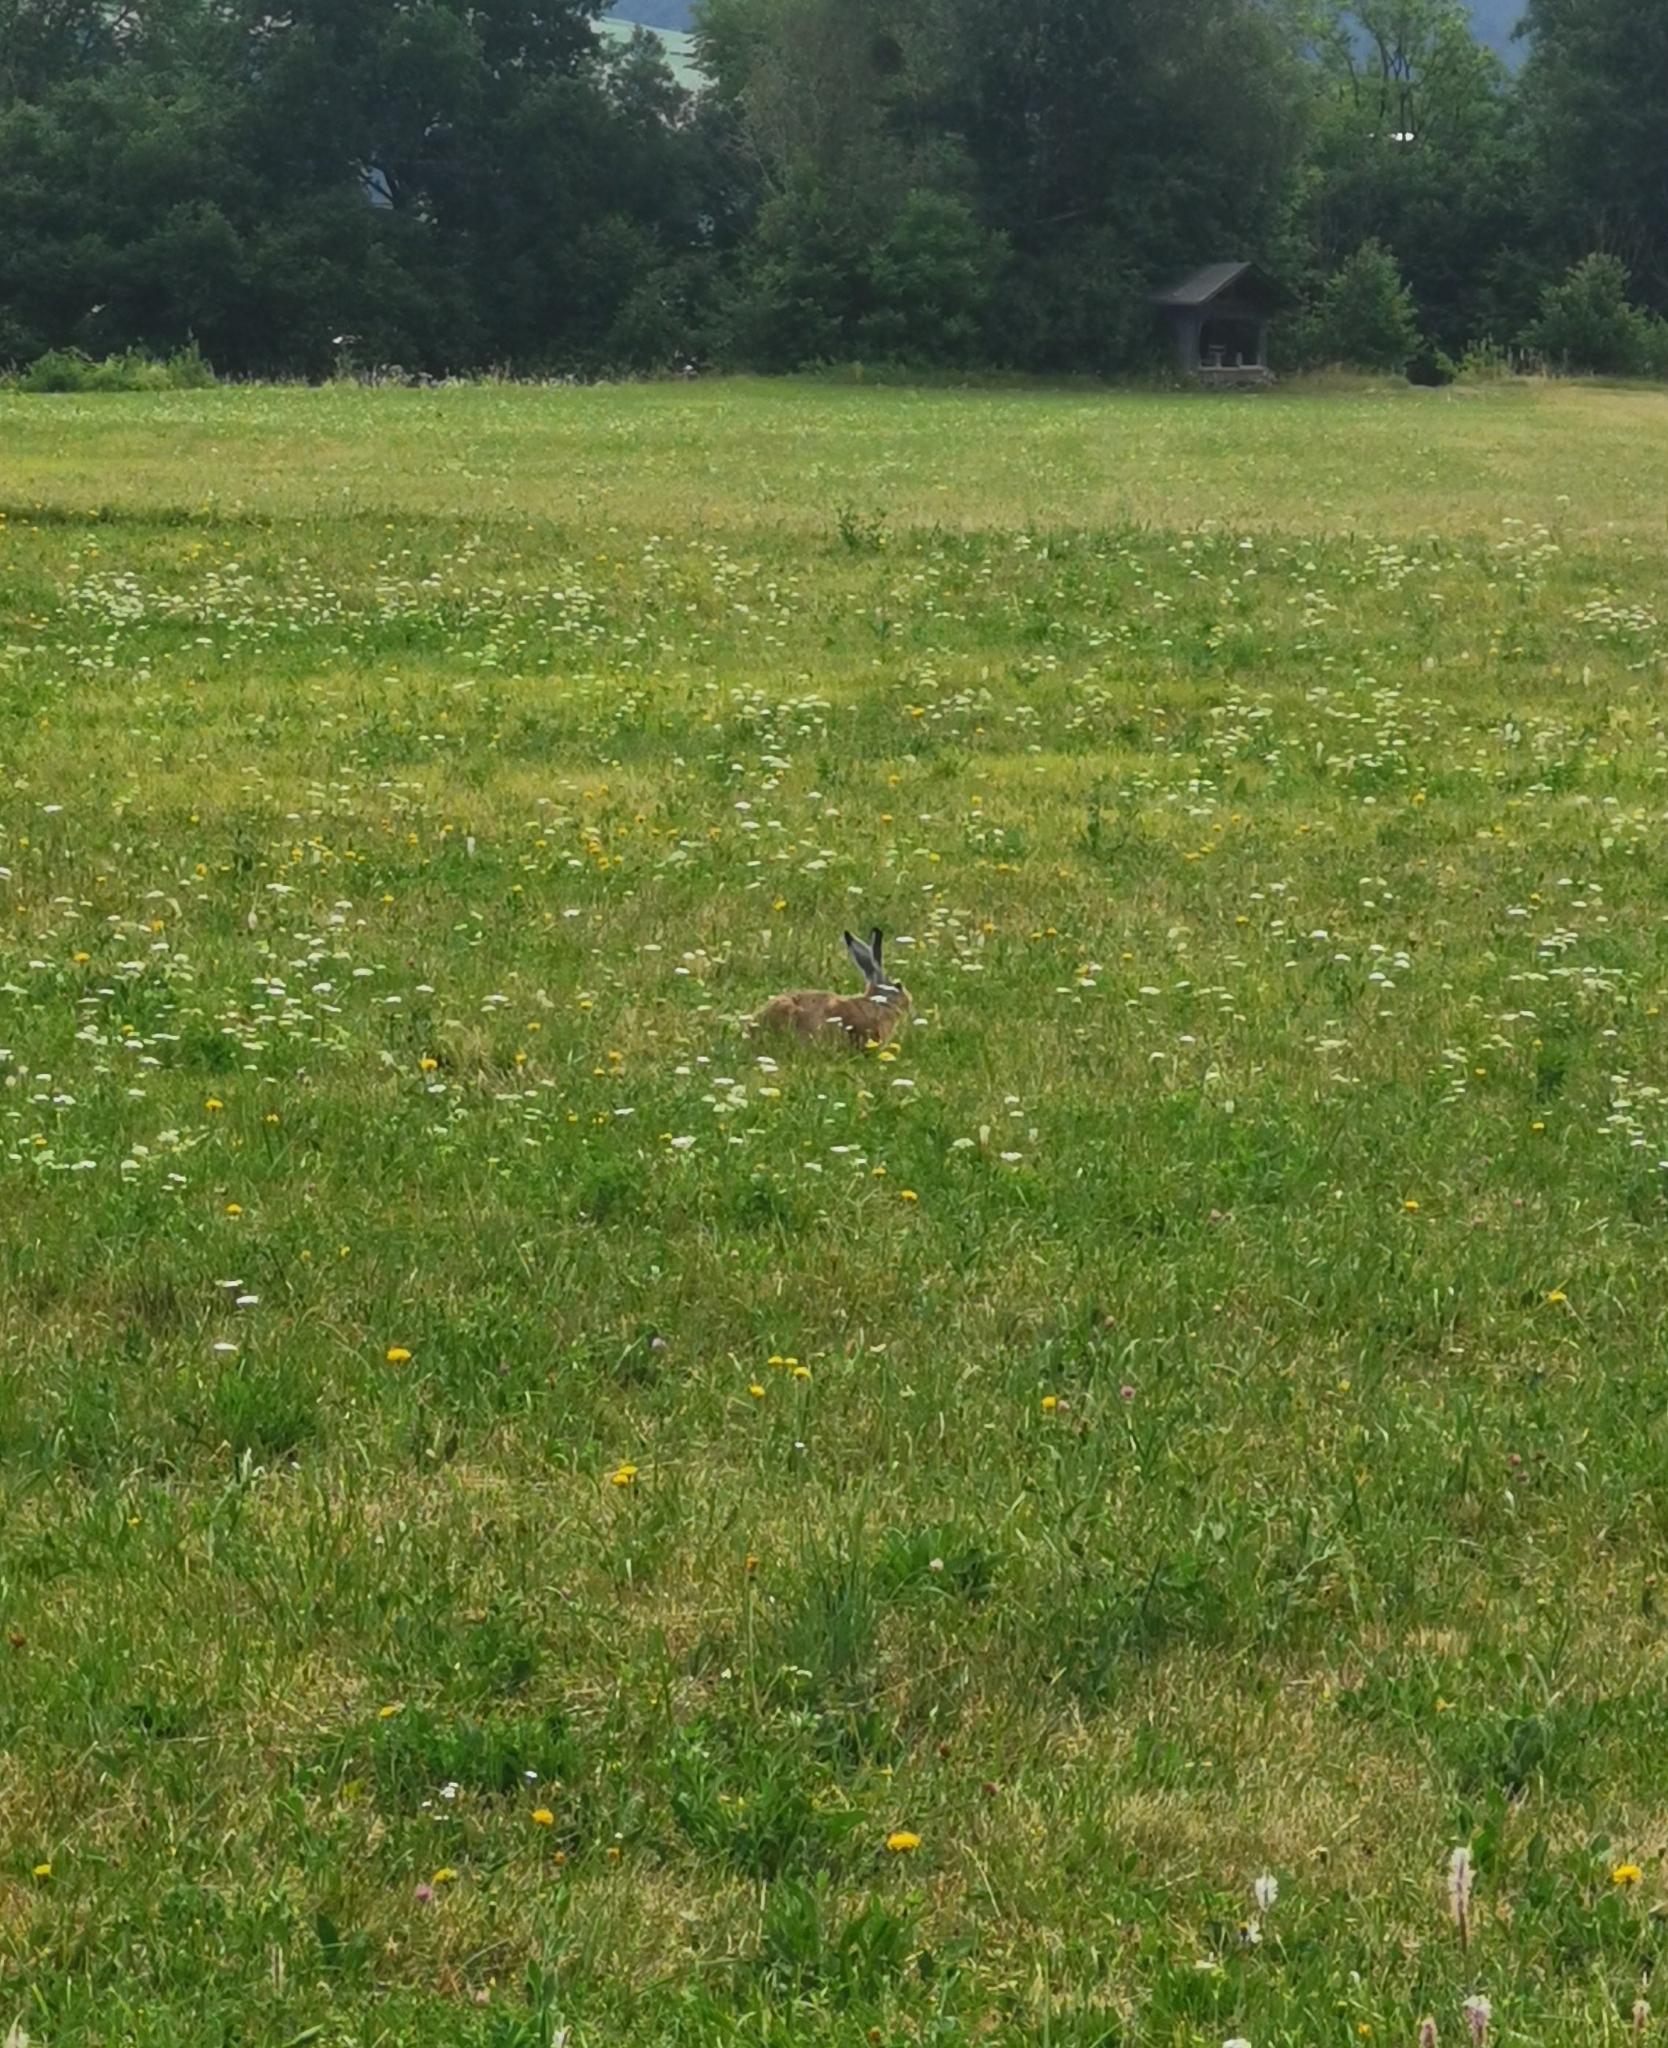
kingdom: Animalia
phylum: Chordata
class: Mammalia
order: Lagomorpha
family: Leporidae
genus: Lepus
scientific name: Lepus europaeus
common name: European hare
